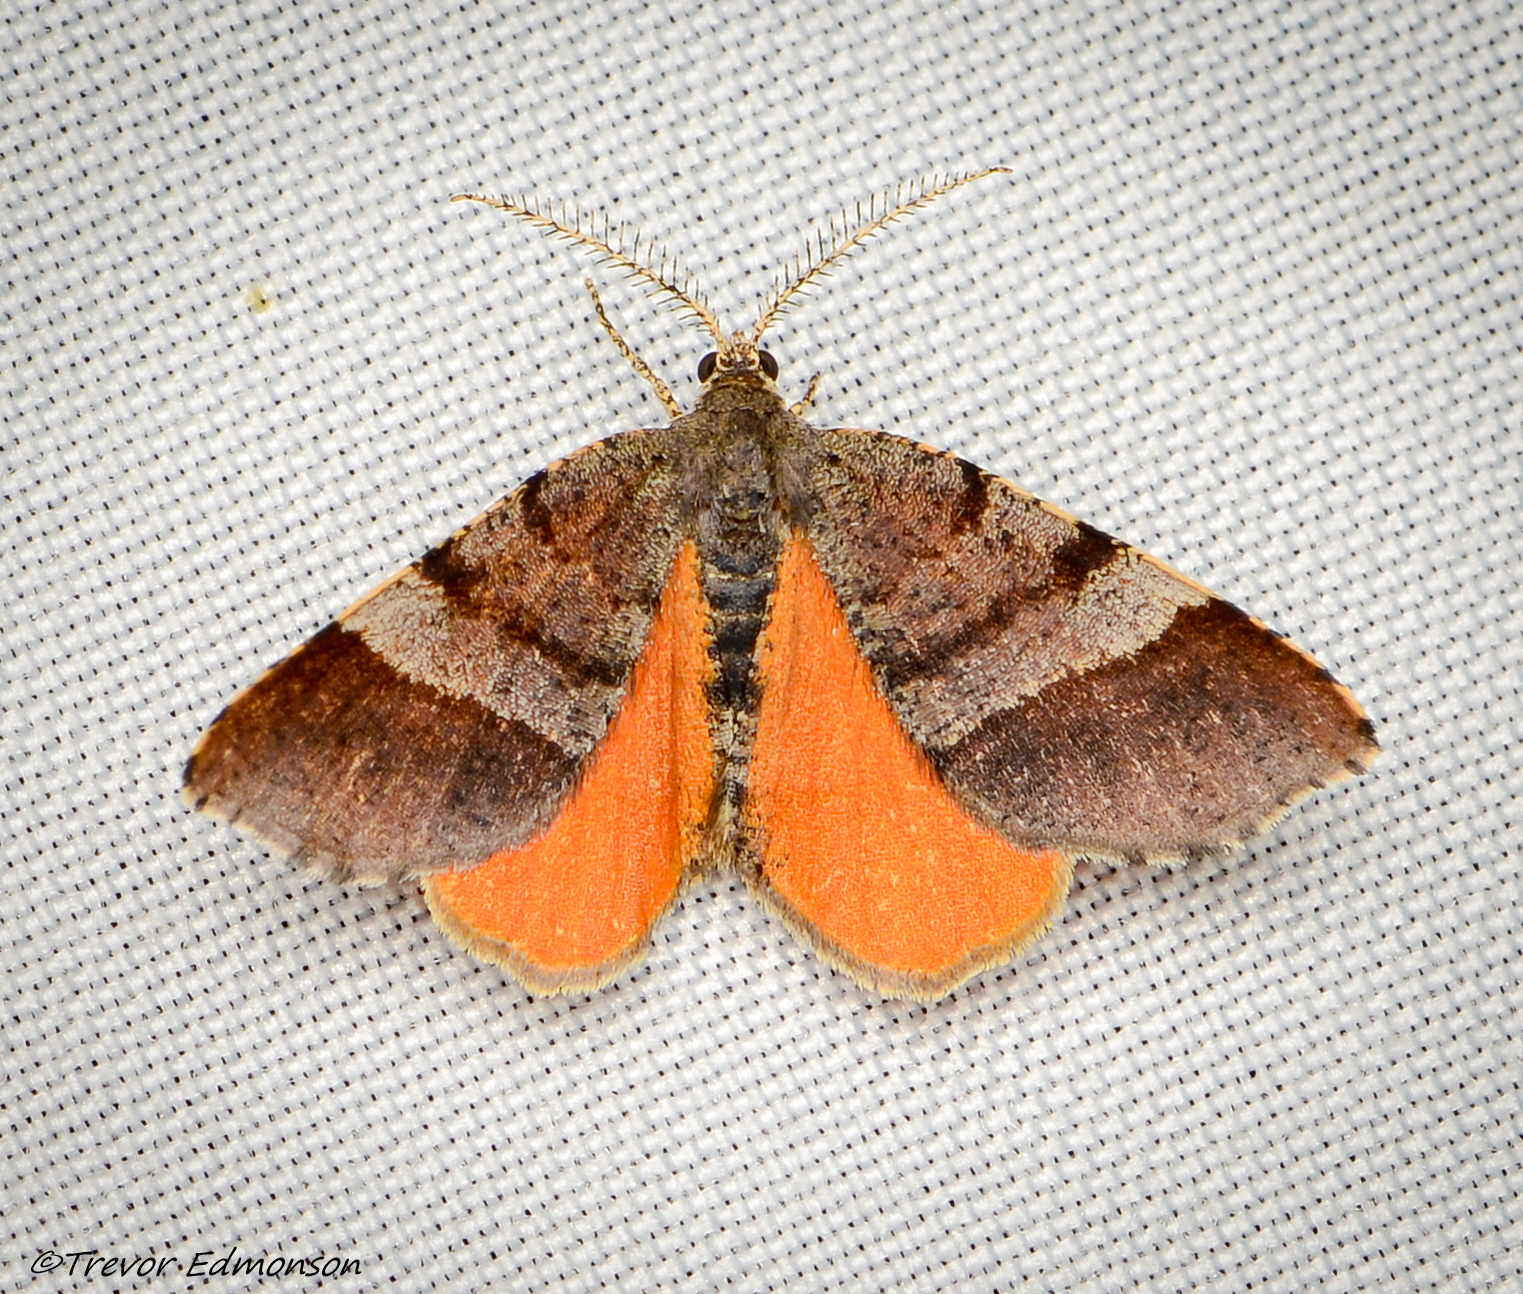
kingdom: Animalia
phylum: Arthropoda
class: Insecta
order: Lepidoptera
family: Geometridae
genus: Mellilla
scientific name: Mellilla xanthometata
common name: Orange wing moth
